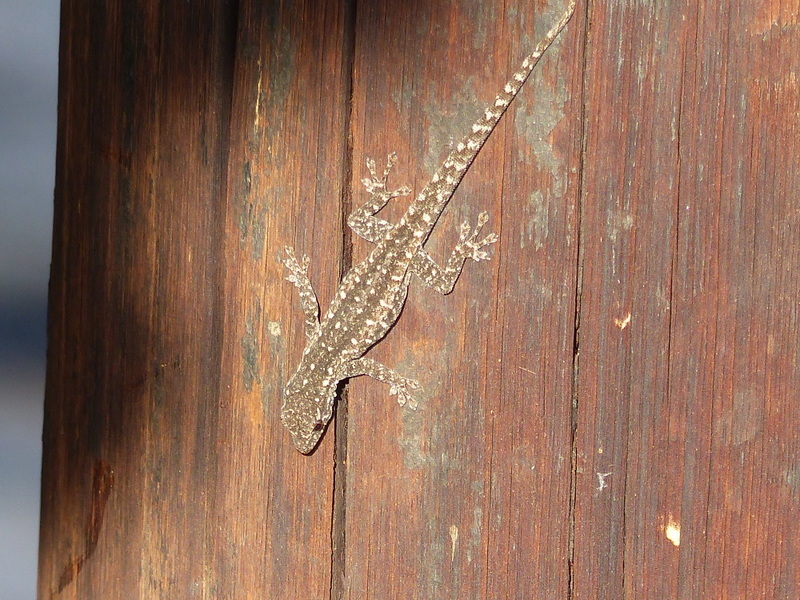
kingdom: Animalia
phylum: Chordata
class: Squamata
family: Gekkonidae
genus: Lygodactylus
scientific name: Lygodactylus capensis
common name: Cape dwarf gecko
